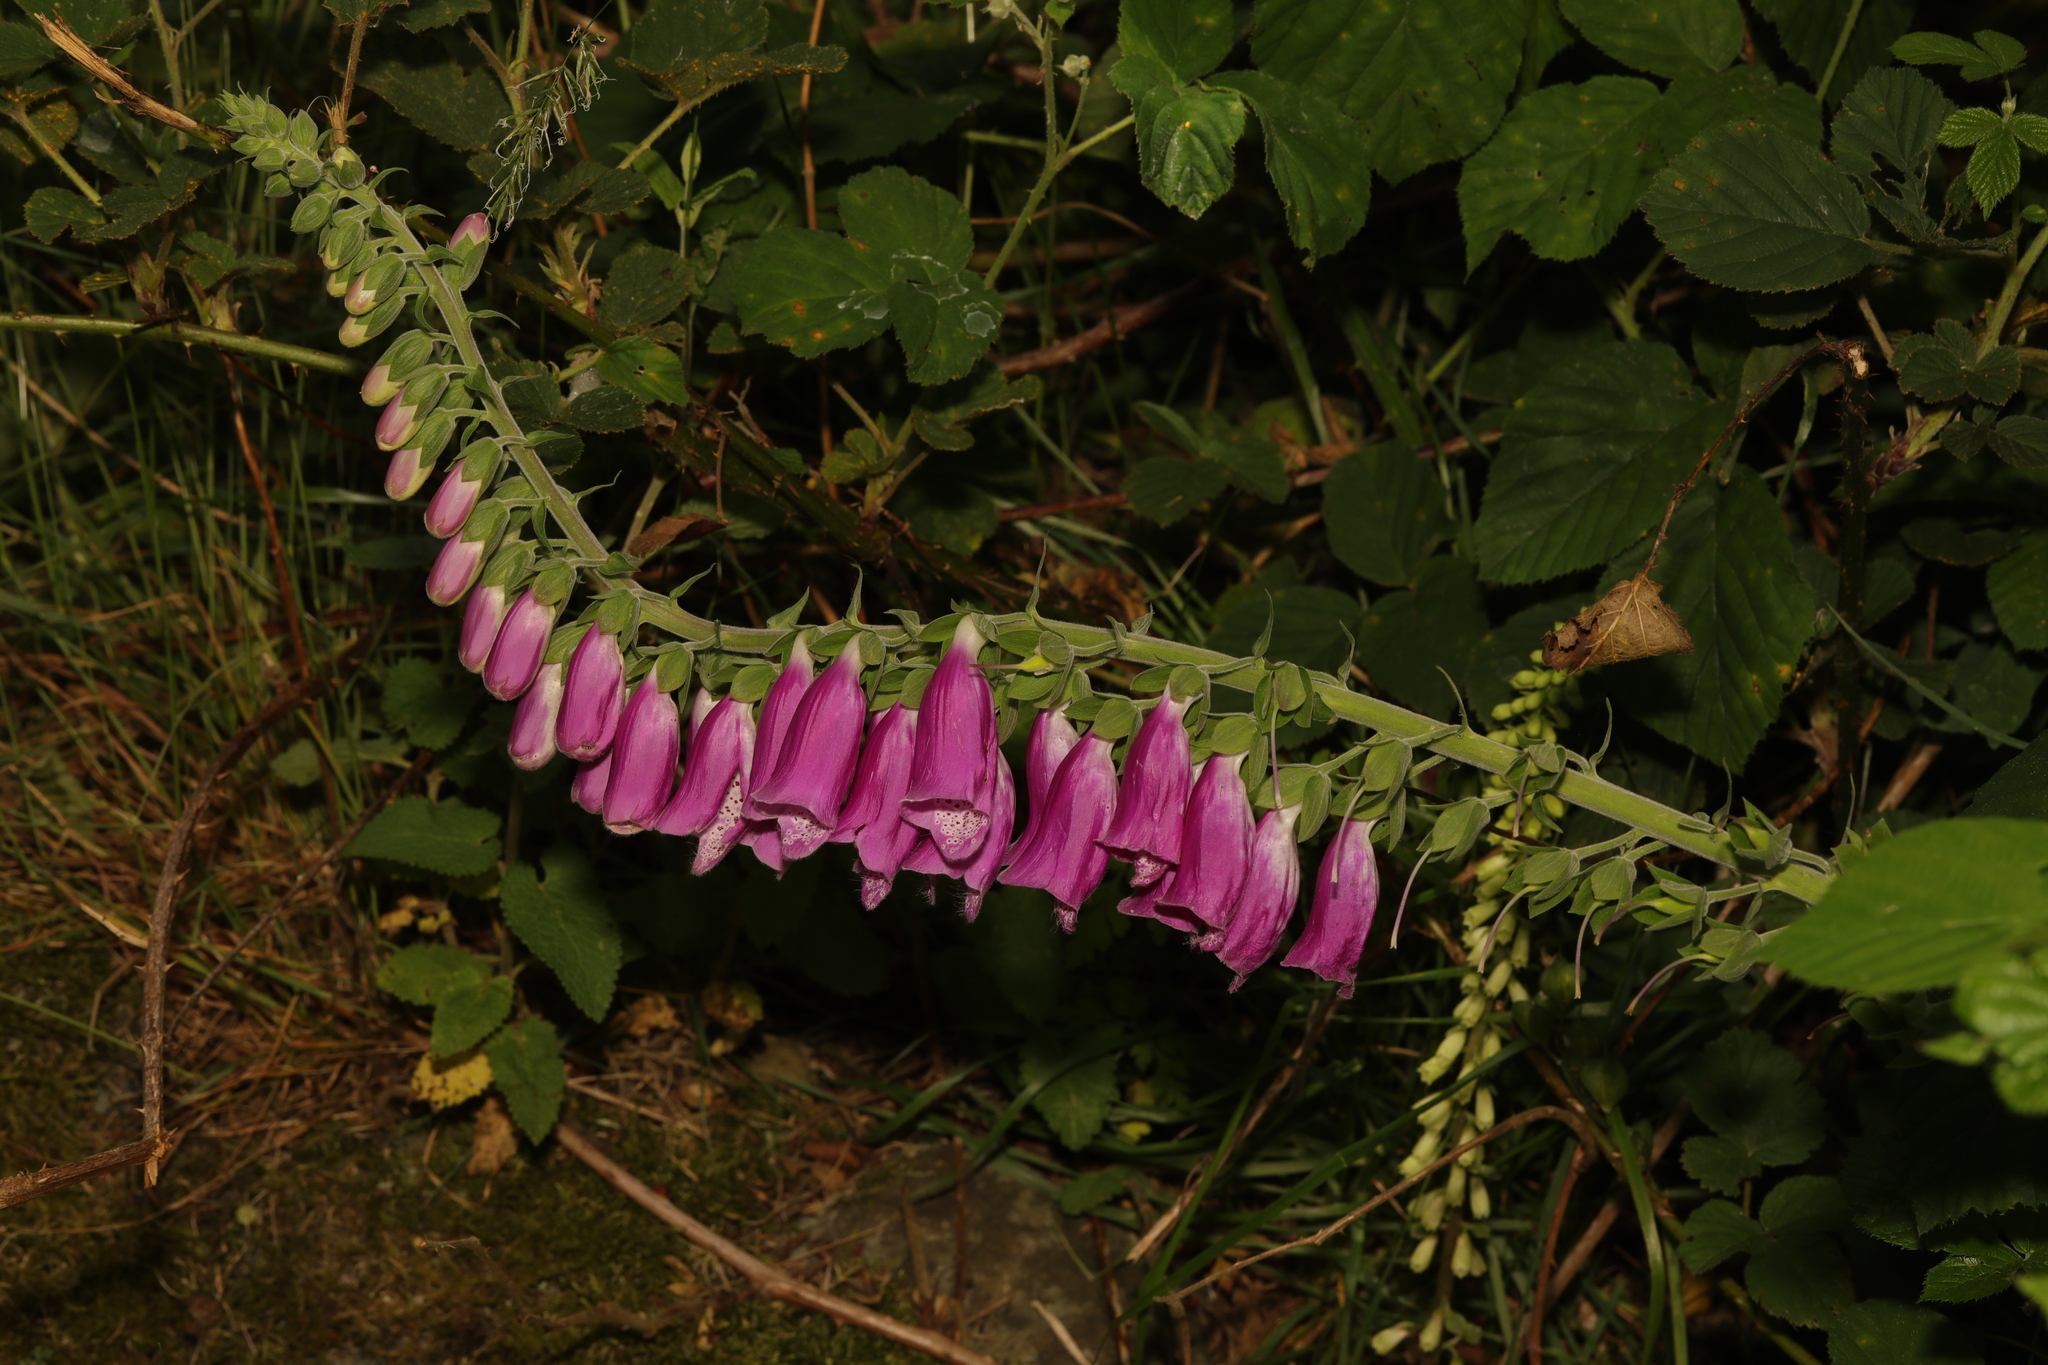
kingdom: Plantae
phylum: Tracheophyta
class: Magnoliopsida
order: Lamiales
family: Plantaginaceae
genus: Digitalis
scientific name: Digitalis purpurea
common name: Foxglove
